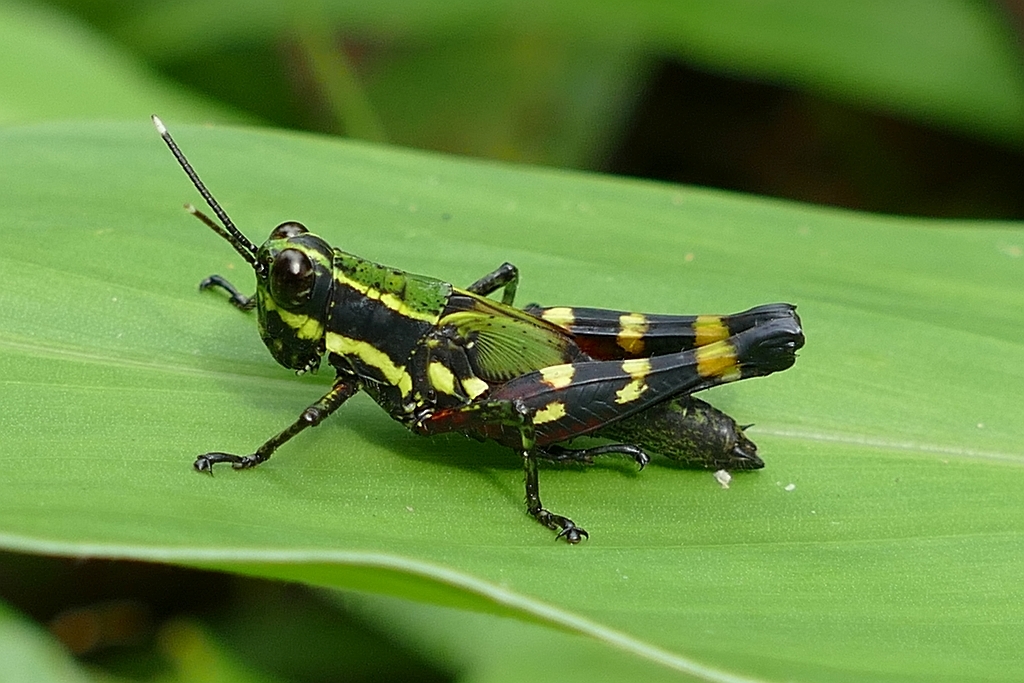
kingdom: Animalia
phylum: Arthropoda
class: Insecta
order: Orthoptera
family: Acrididae
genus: Tetrataenia
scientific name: Tetrataenia surinama
